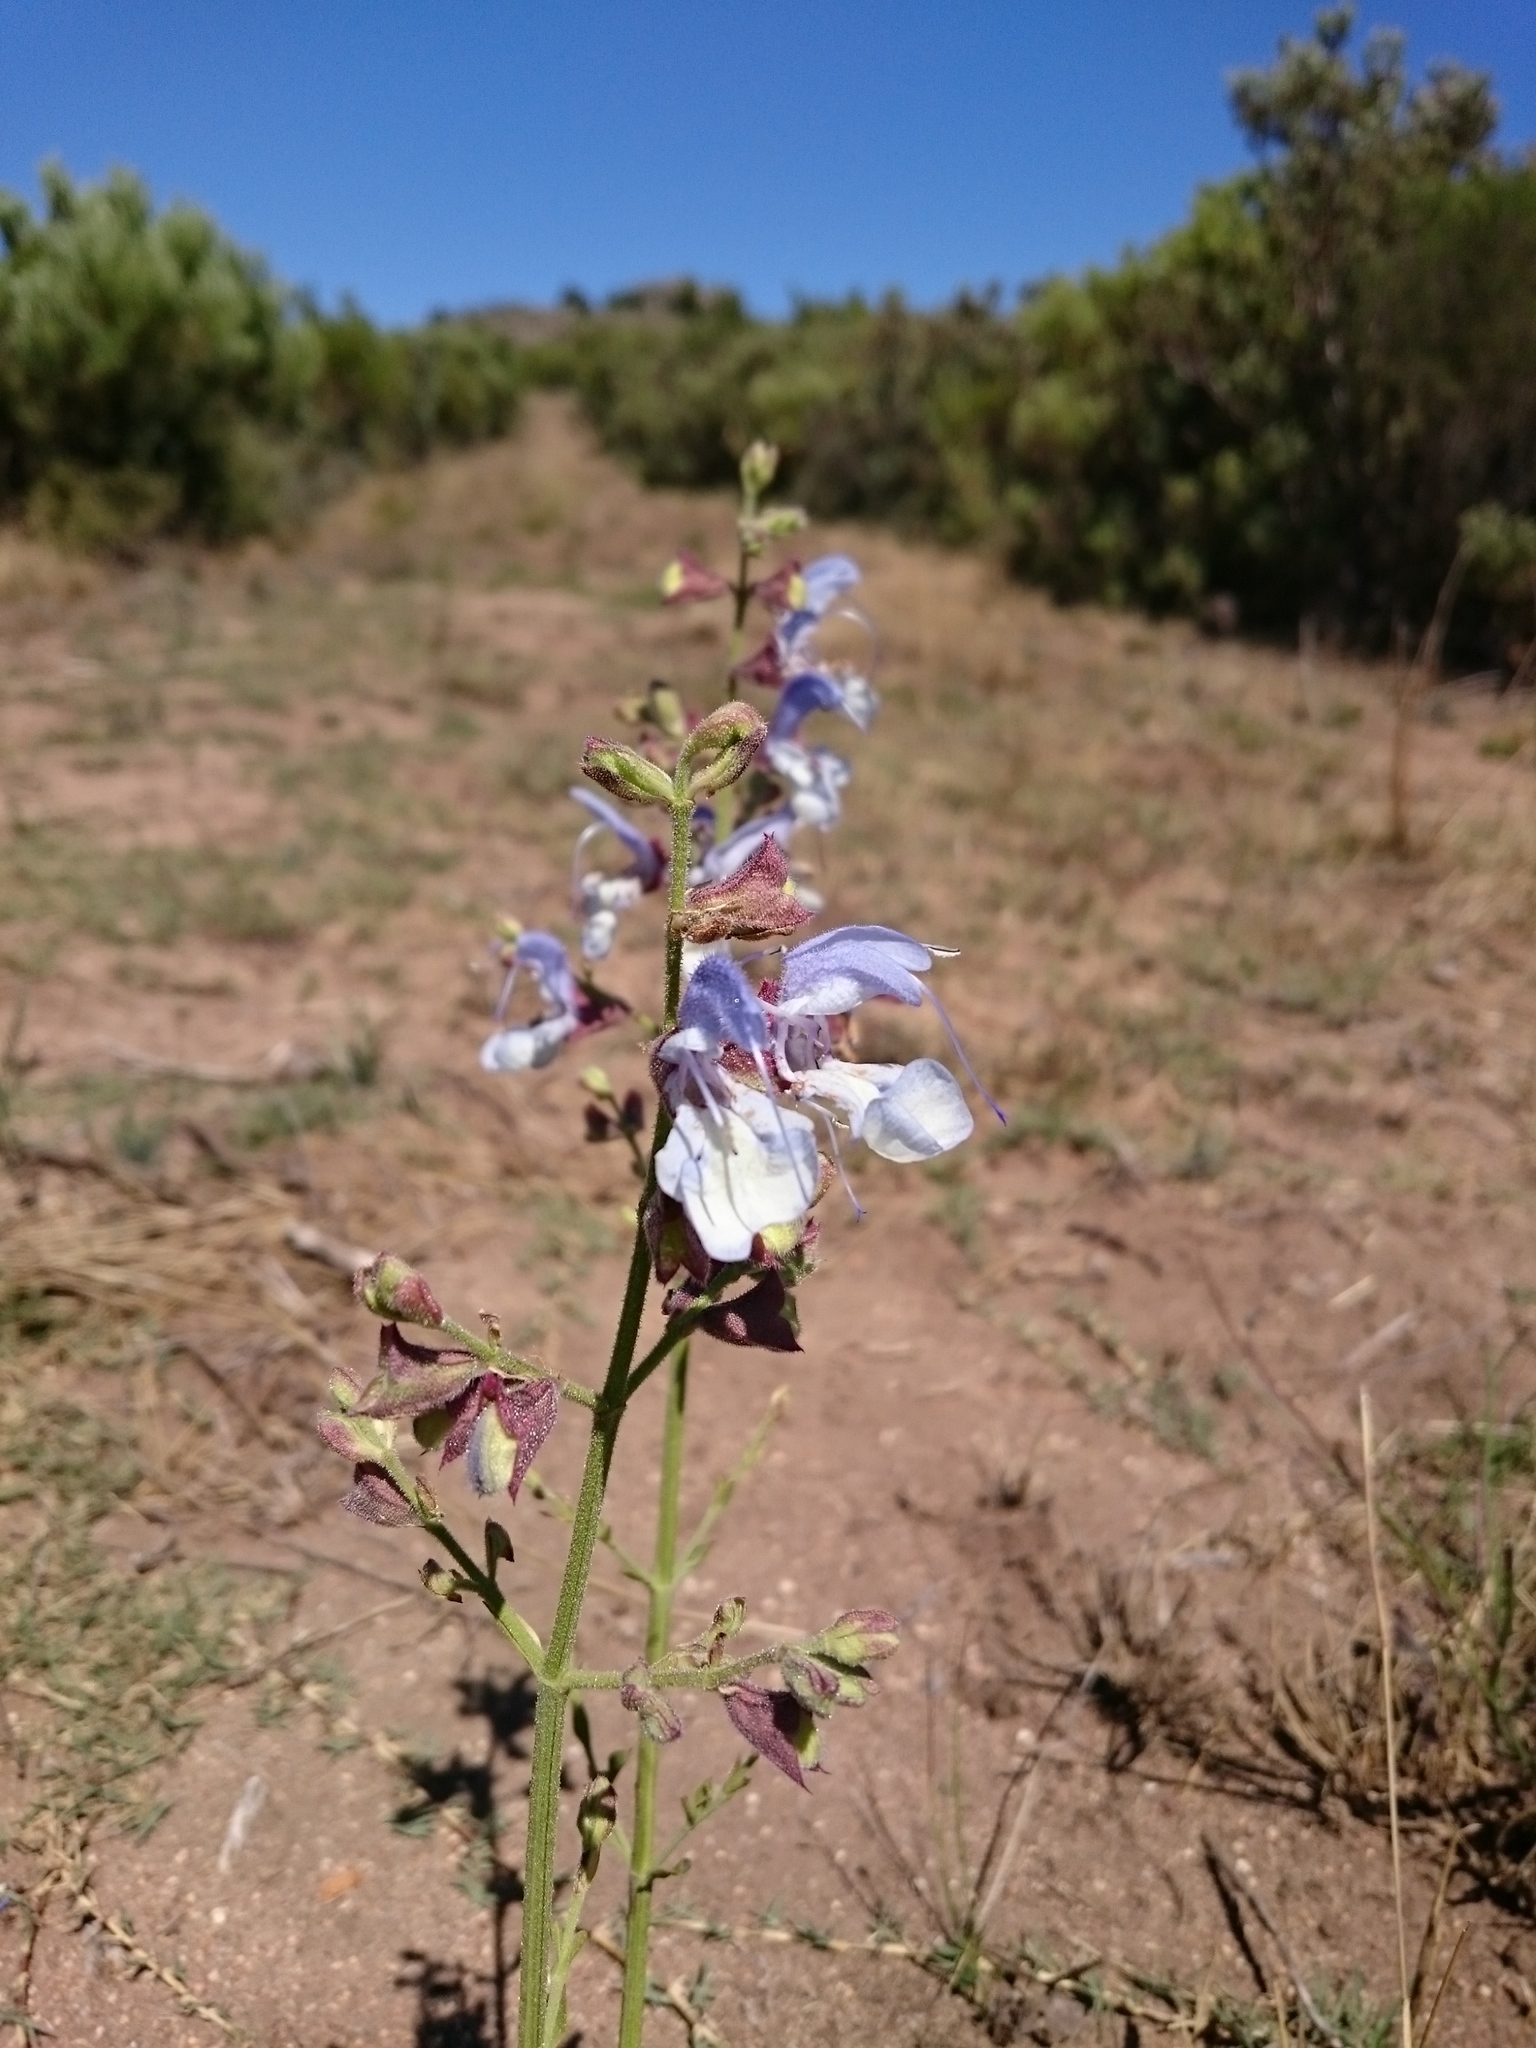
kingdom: Plantae
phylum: Tracheophyta
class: Magnoliopsida
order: Lamiales
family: Lamiaceae
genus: Salvia
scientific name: Salvia chamelaeagnea
